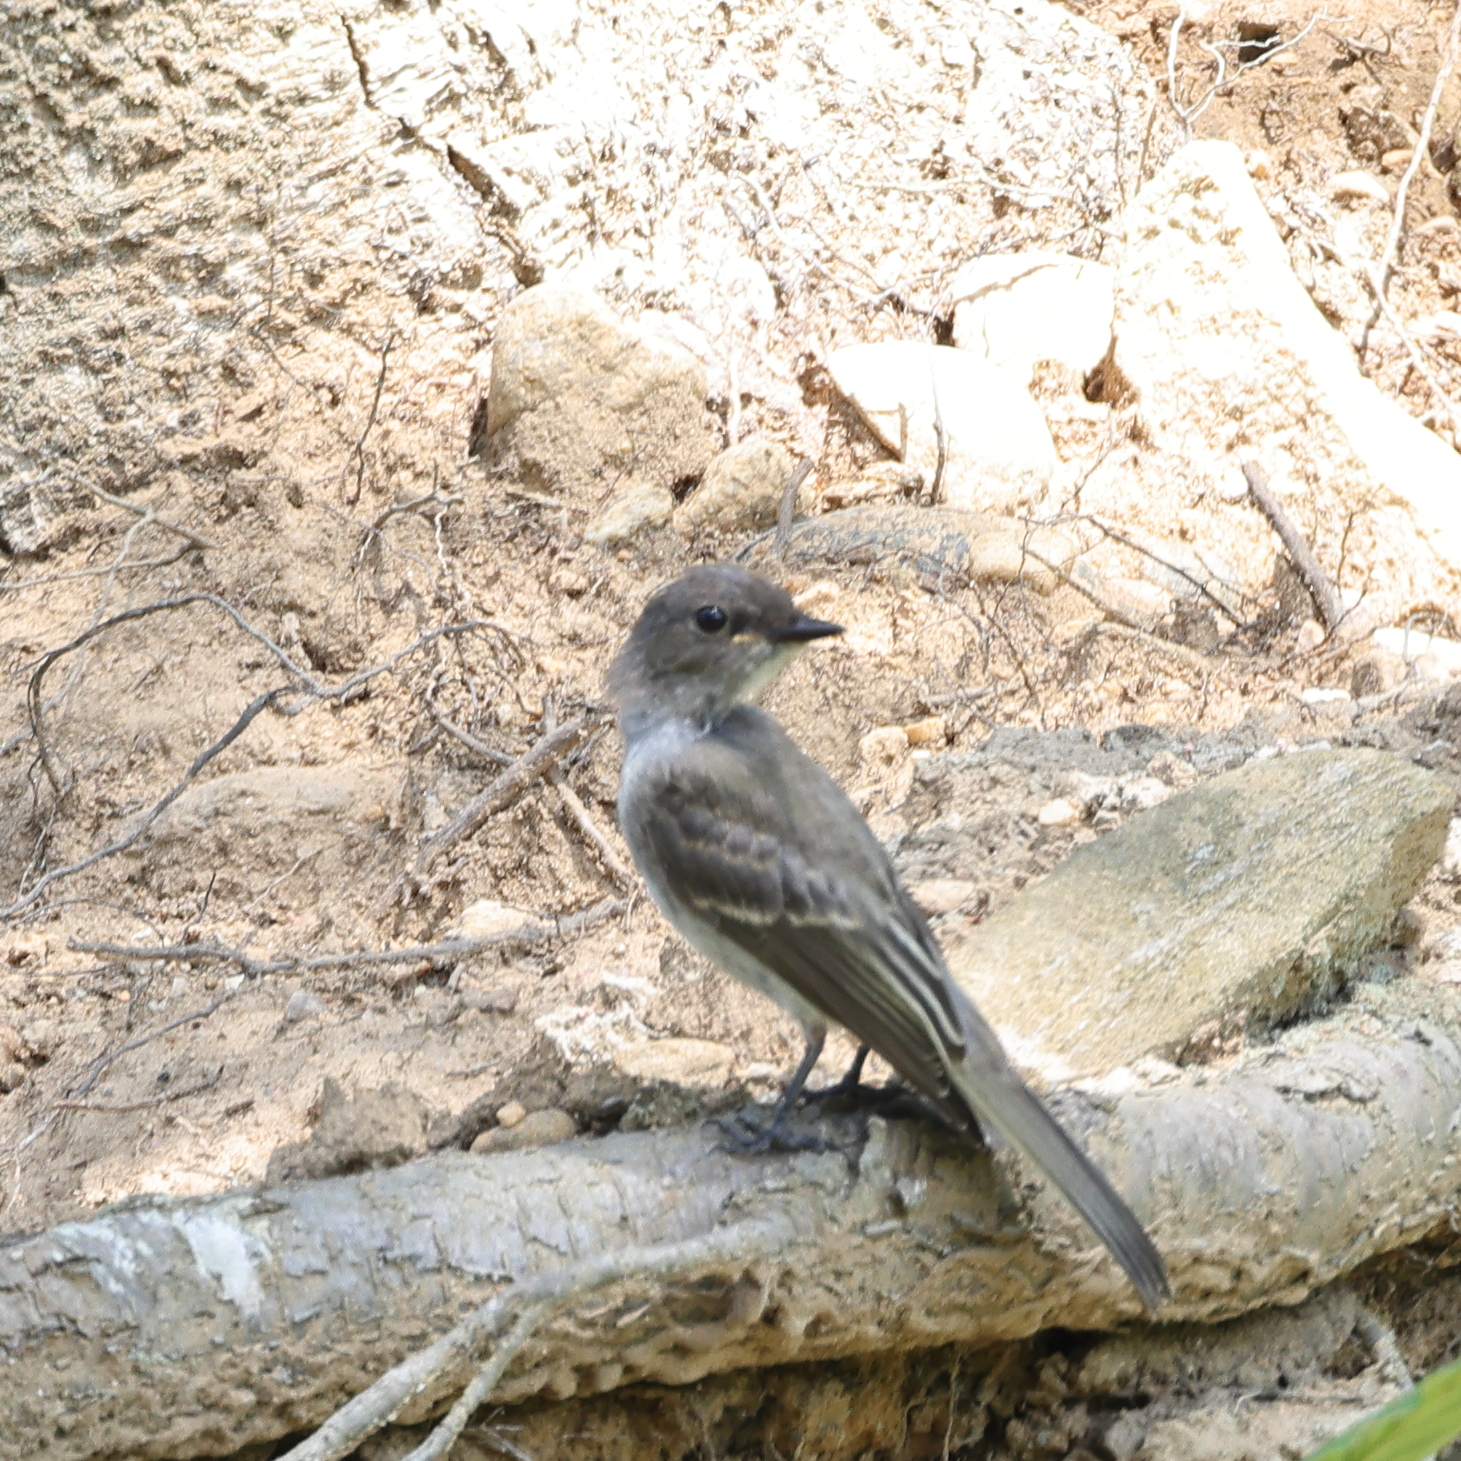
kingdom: Animalia
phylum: Chordata
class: Aves
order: Passeriformes
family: Tyrannidae
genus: Sayornis
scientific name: Sayornis phoebe
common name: Eastern phoebe
